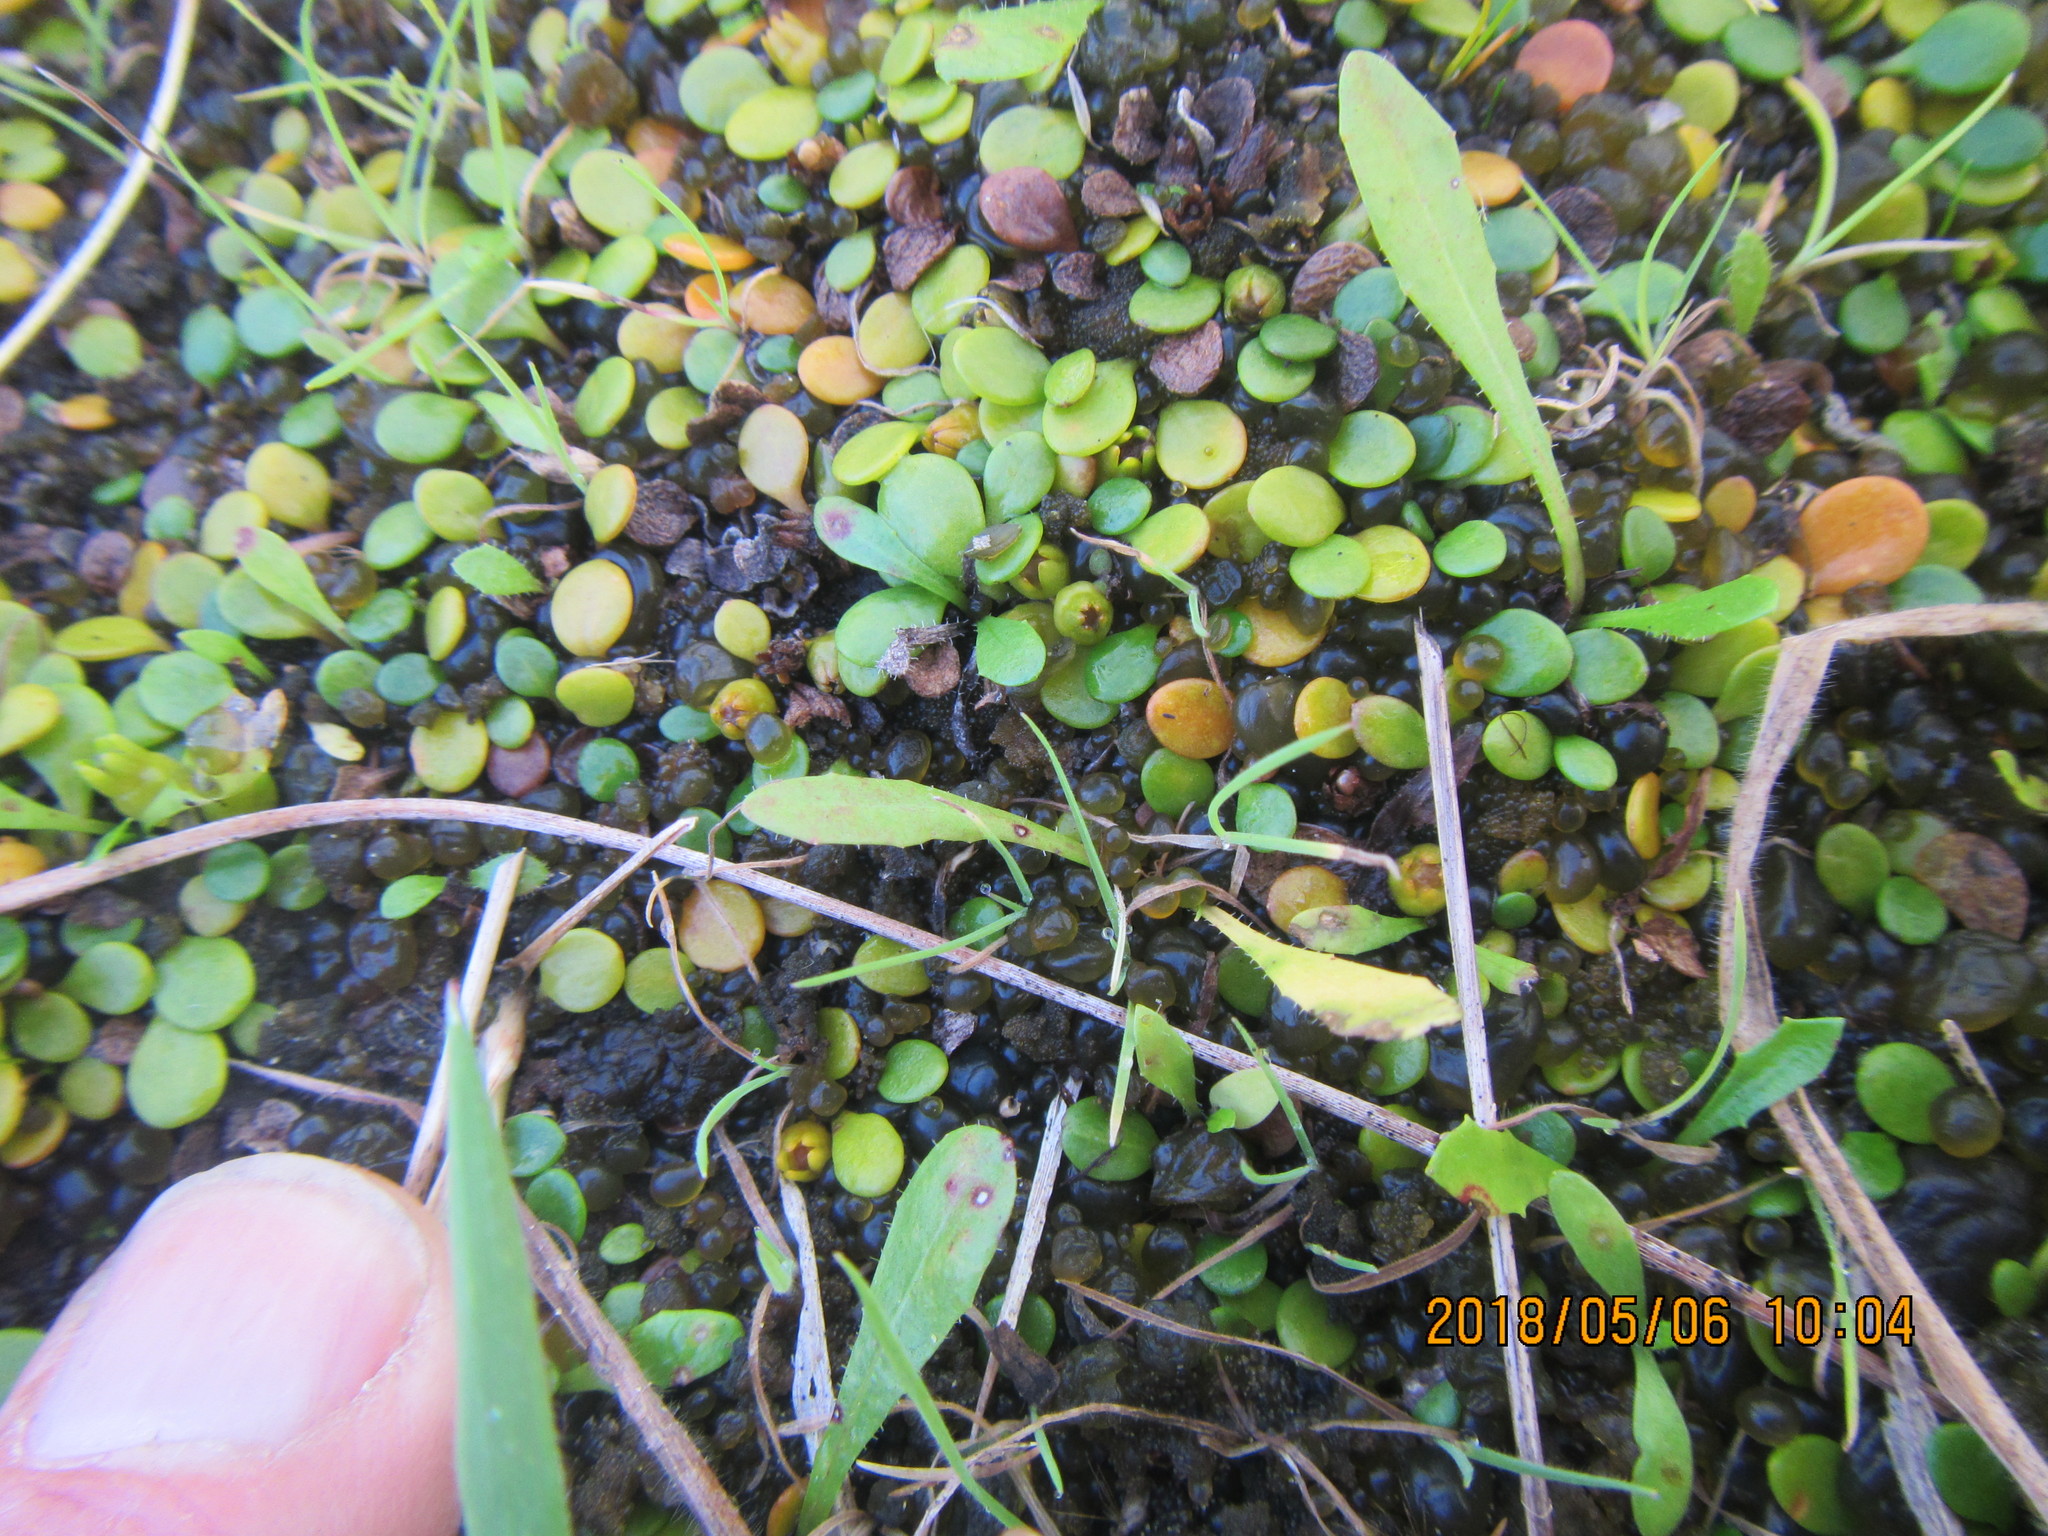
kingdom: Plantae
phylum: Tracheophyta
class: Magnoliopsida
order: Asterales
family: Goodeniaceae
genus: Goodenia
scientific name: Goodenia heenanii
